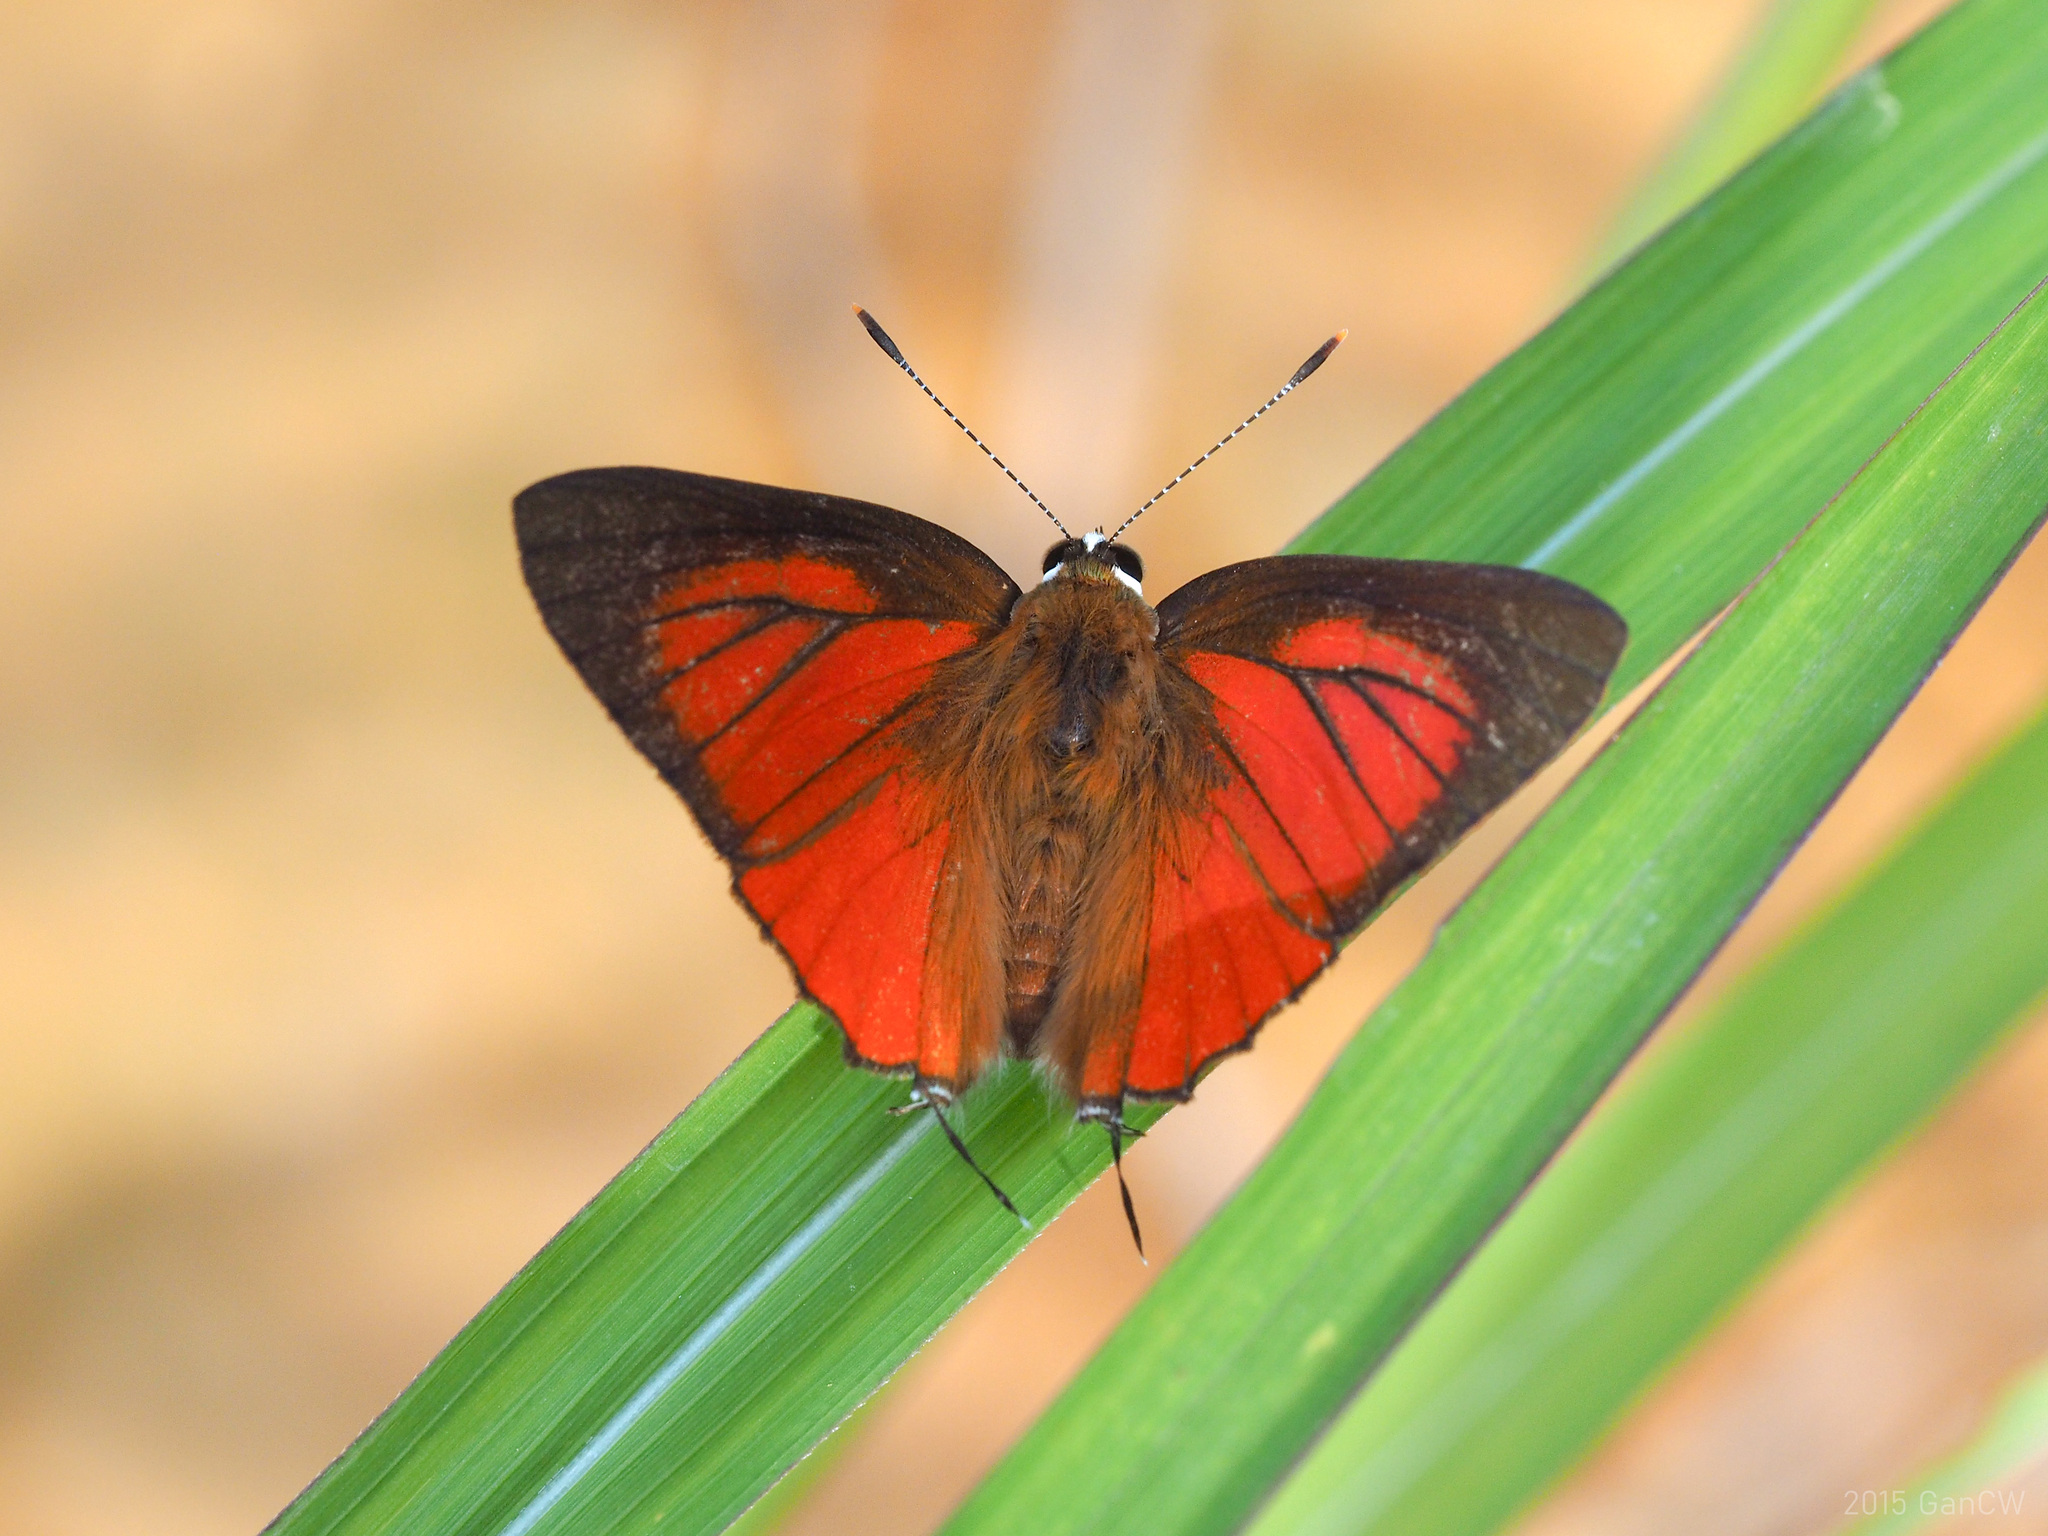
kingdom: Animalia
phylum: Arthropoda
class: Insecta
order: Lepidoptera
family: Lycaenidae
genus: Rapala
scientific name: Rapala iarbus
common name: Common red flash
